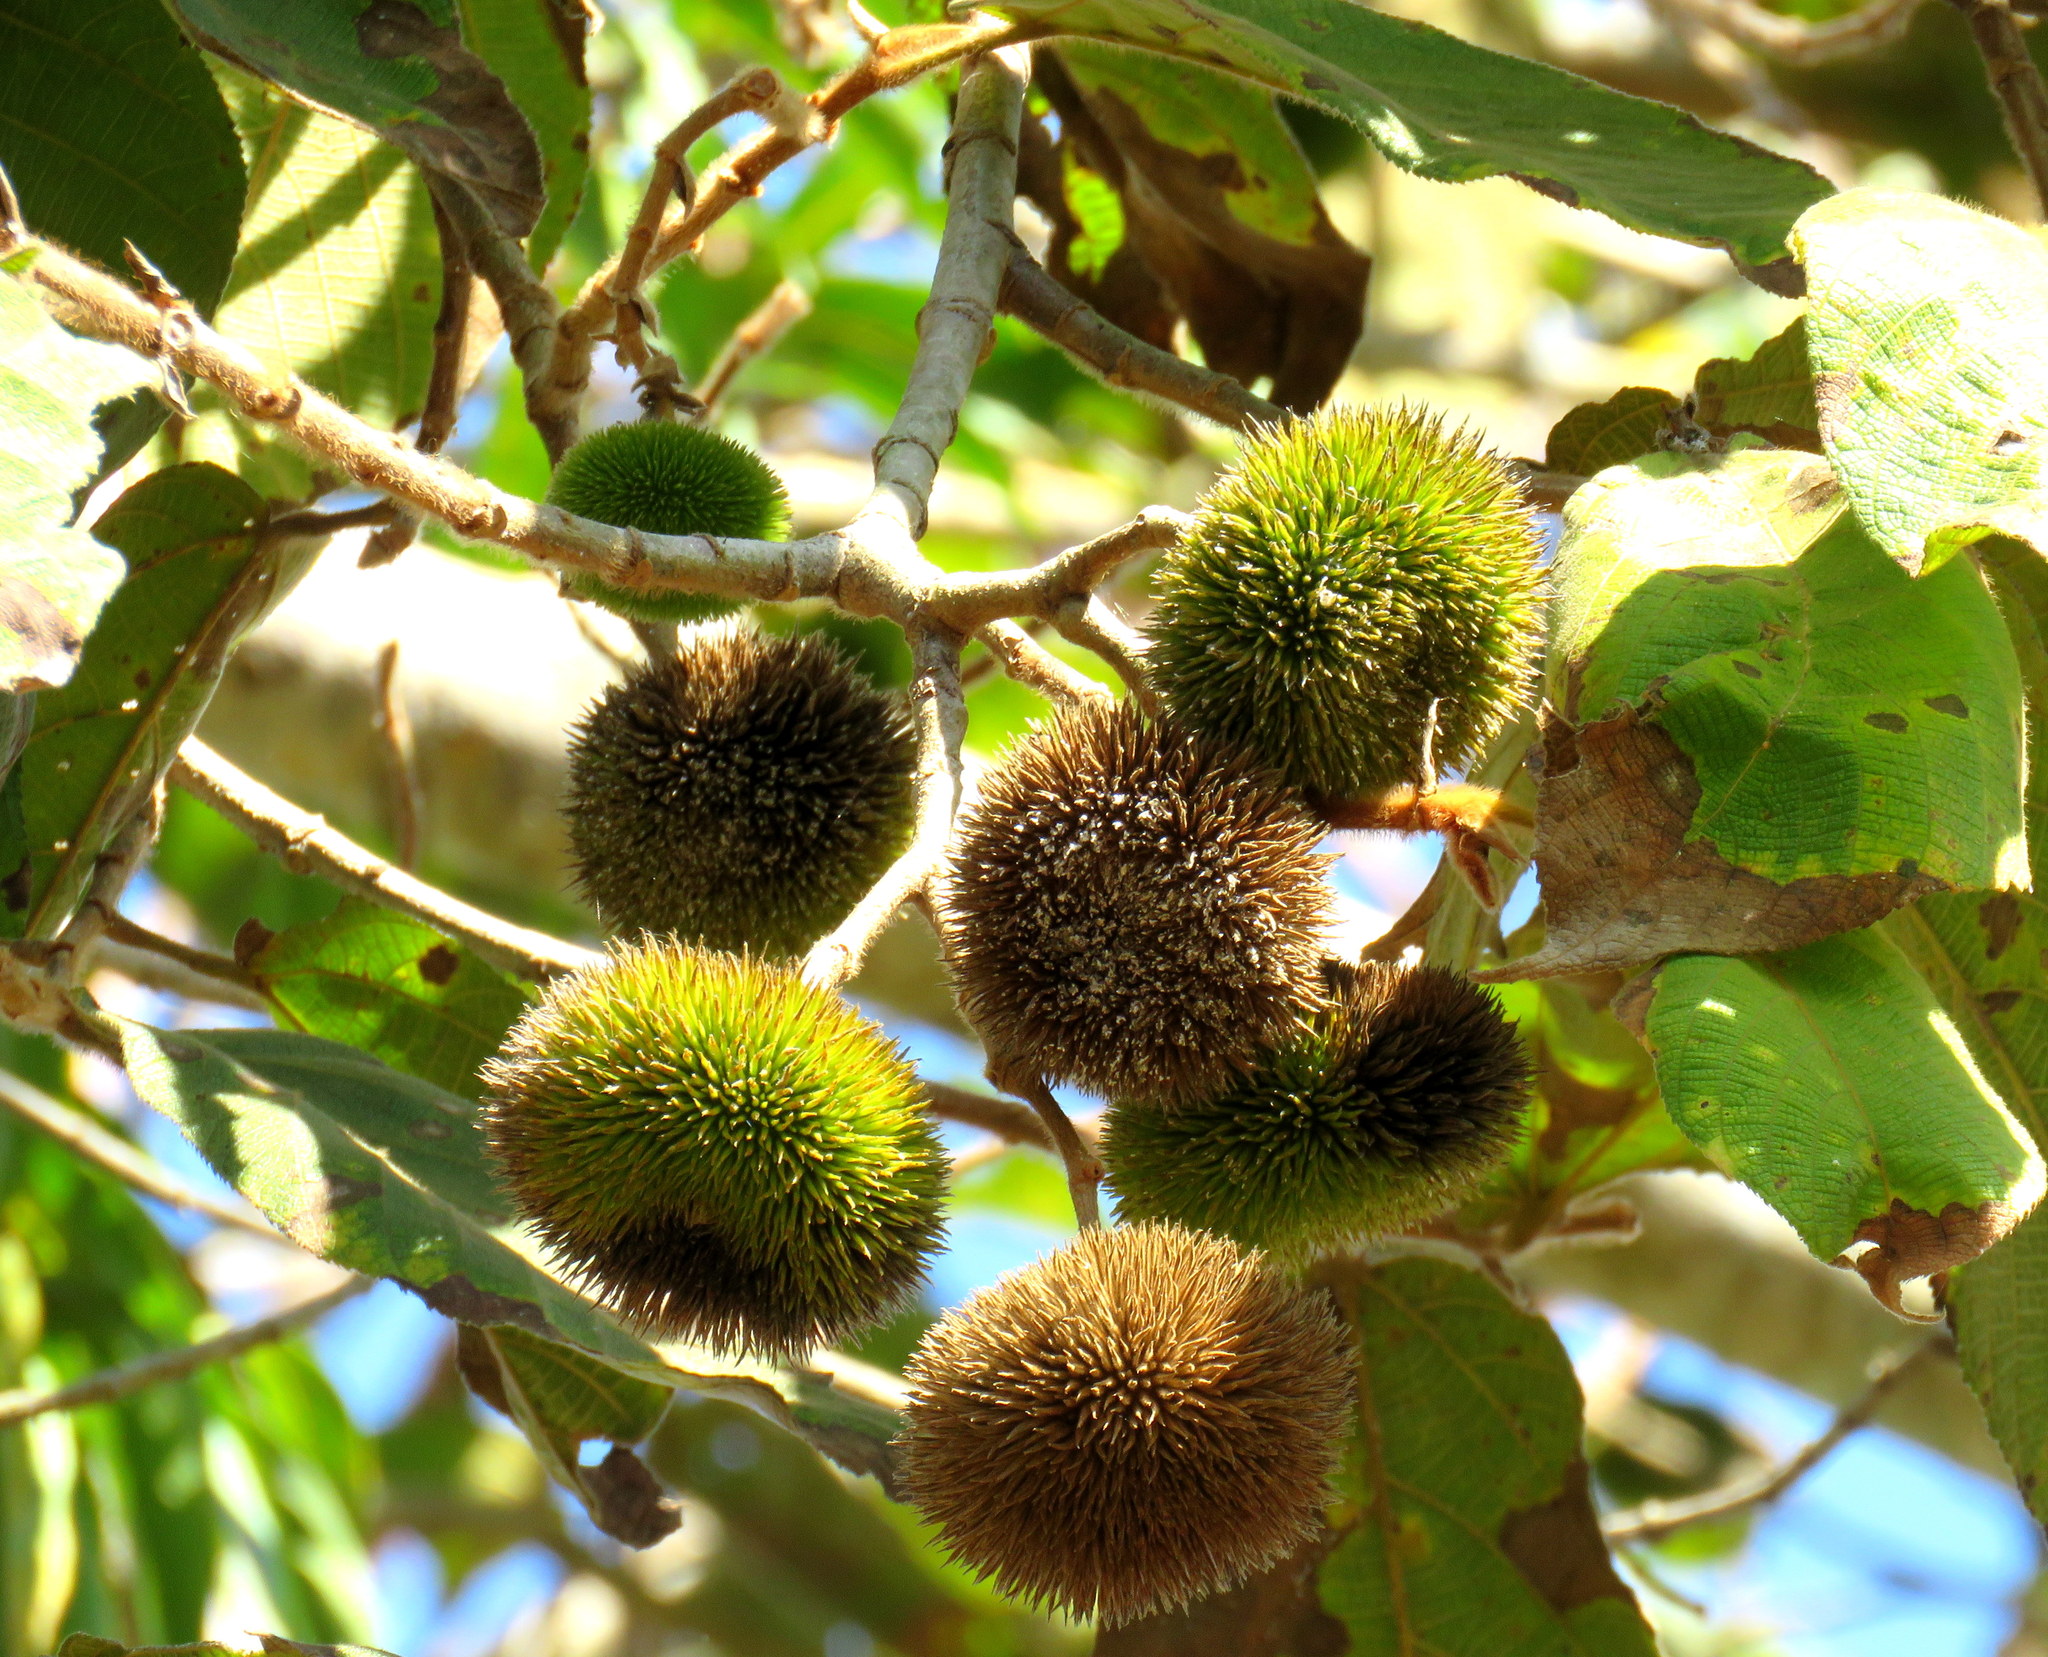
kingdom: Plantae
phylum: Tracheophyta
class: Magnoliopsida
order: Malvales
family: Malvaceae
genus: Apeiba
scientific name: Apeiba tibourbou
